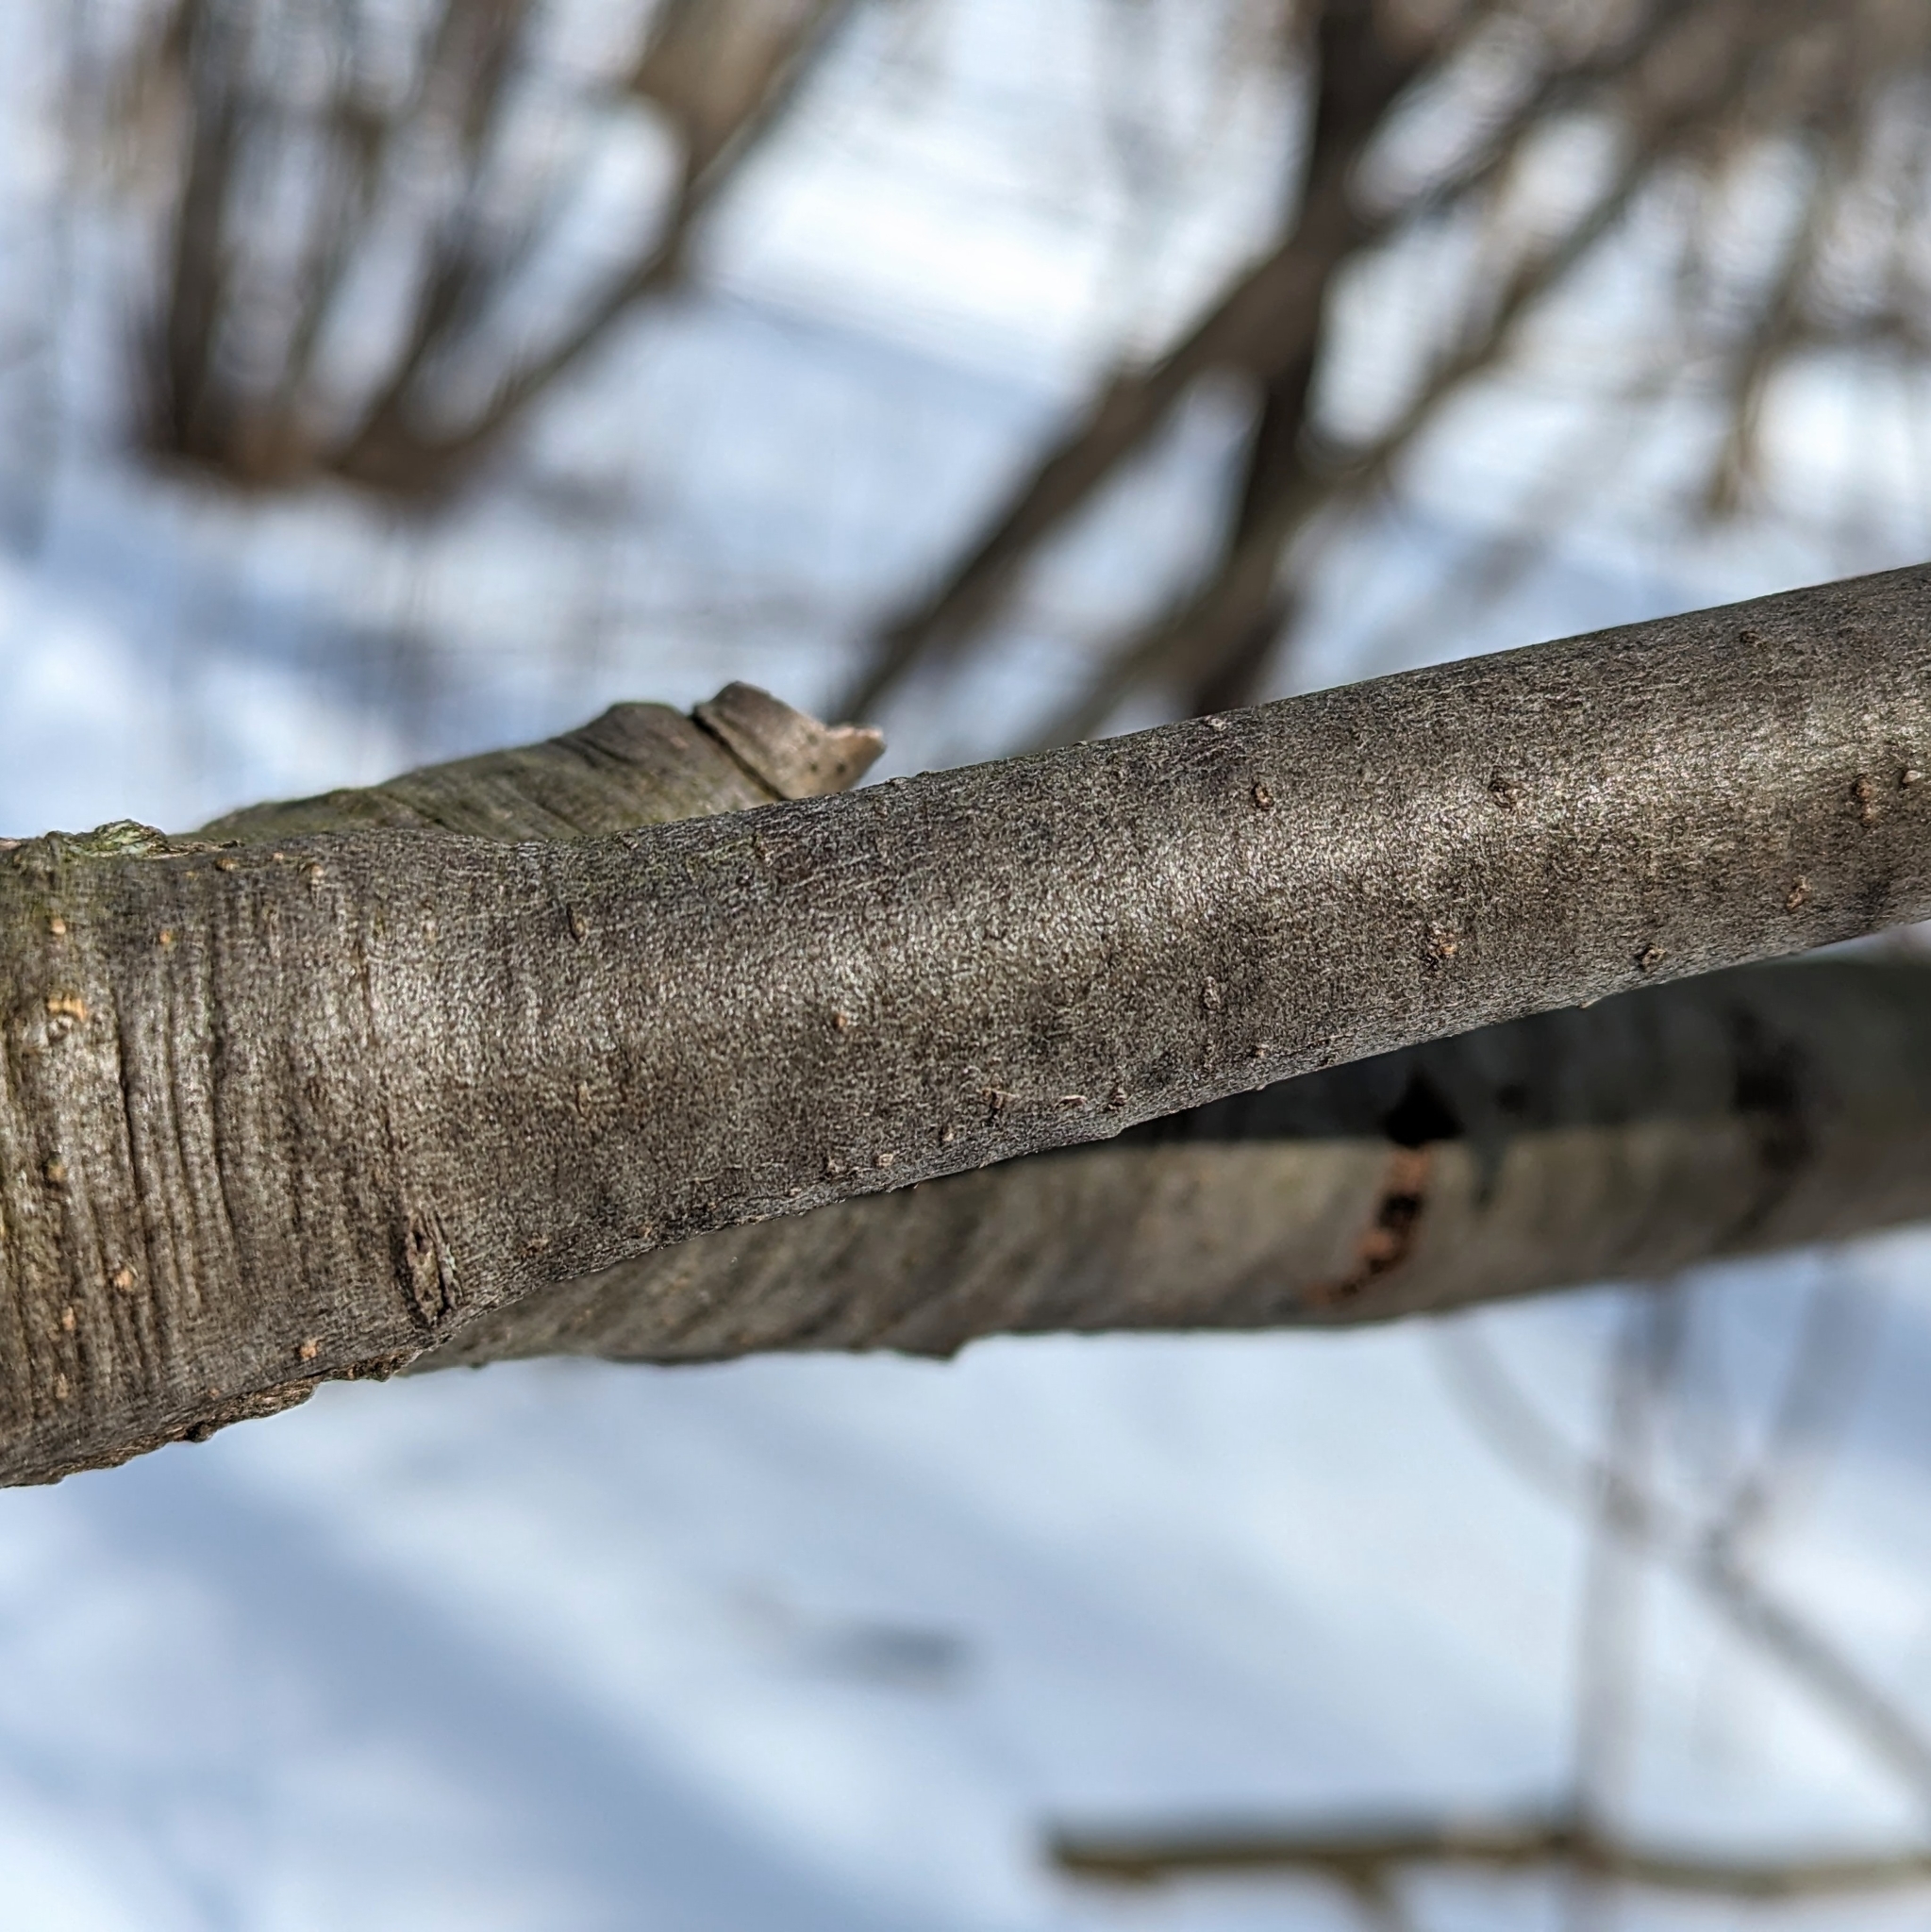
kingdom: Plantae
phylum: Tracheophyta
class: Magnoliopsida
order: Fagales
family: Betulaceae
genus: Alnus
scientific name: Alnus incana
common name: Grey alder
